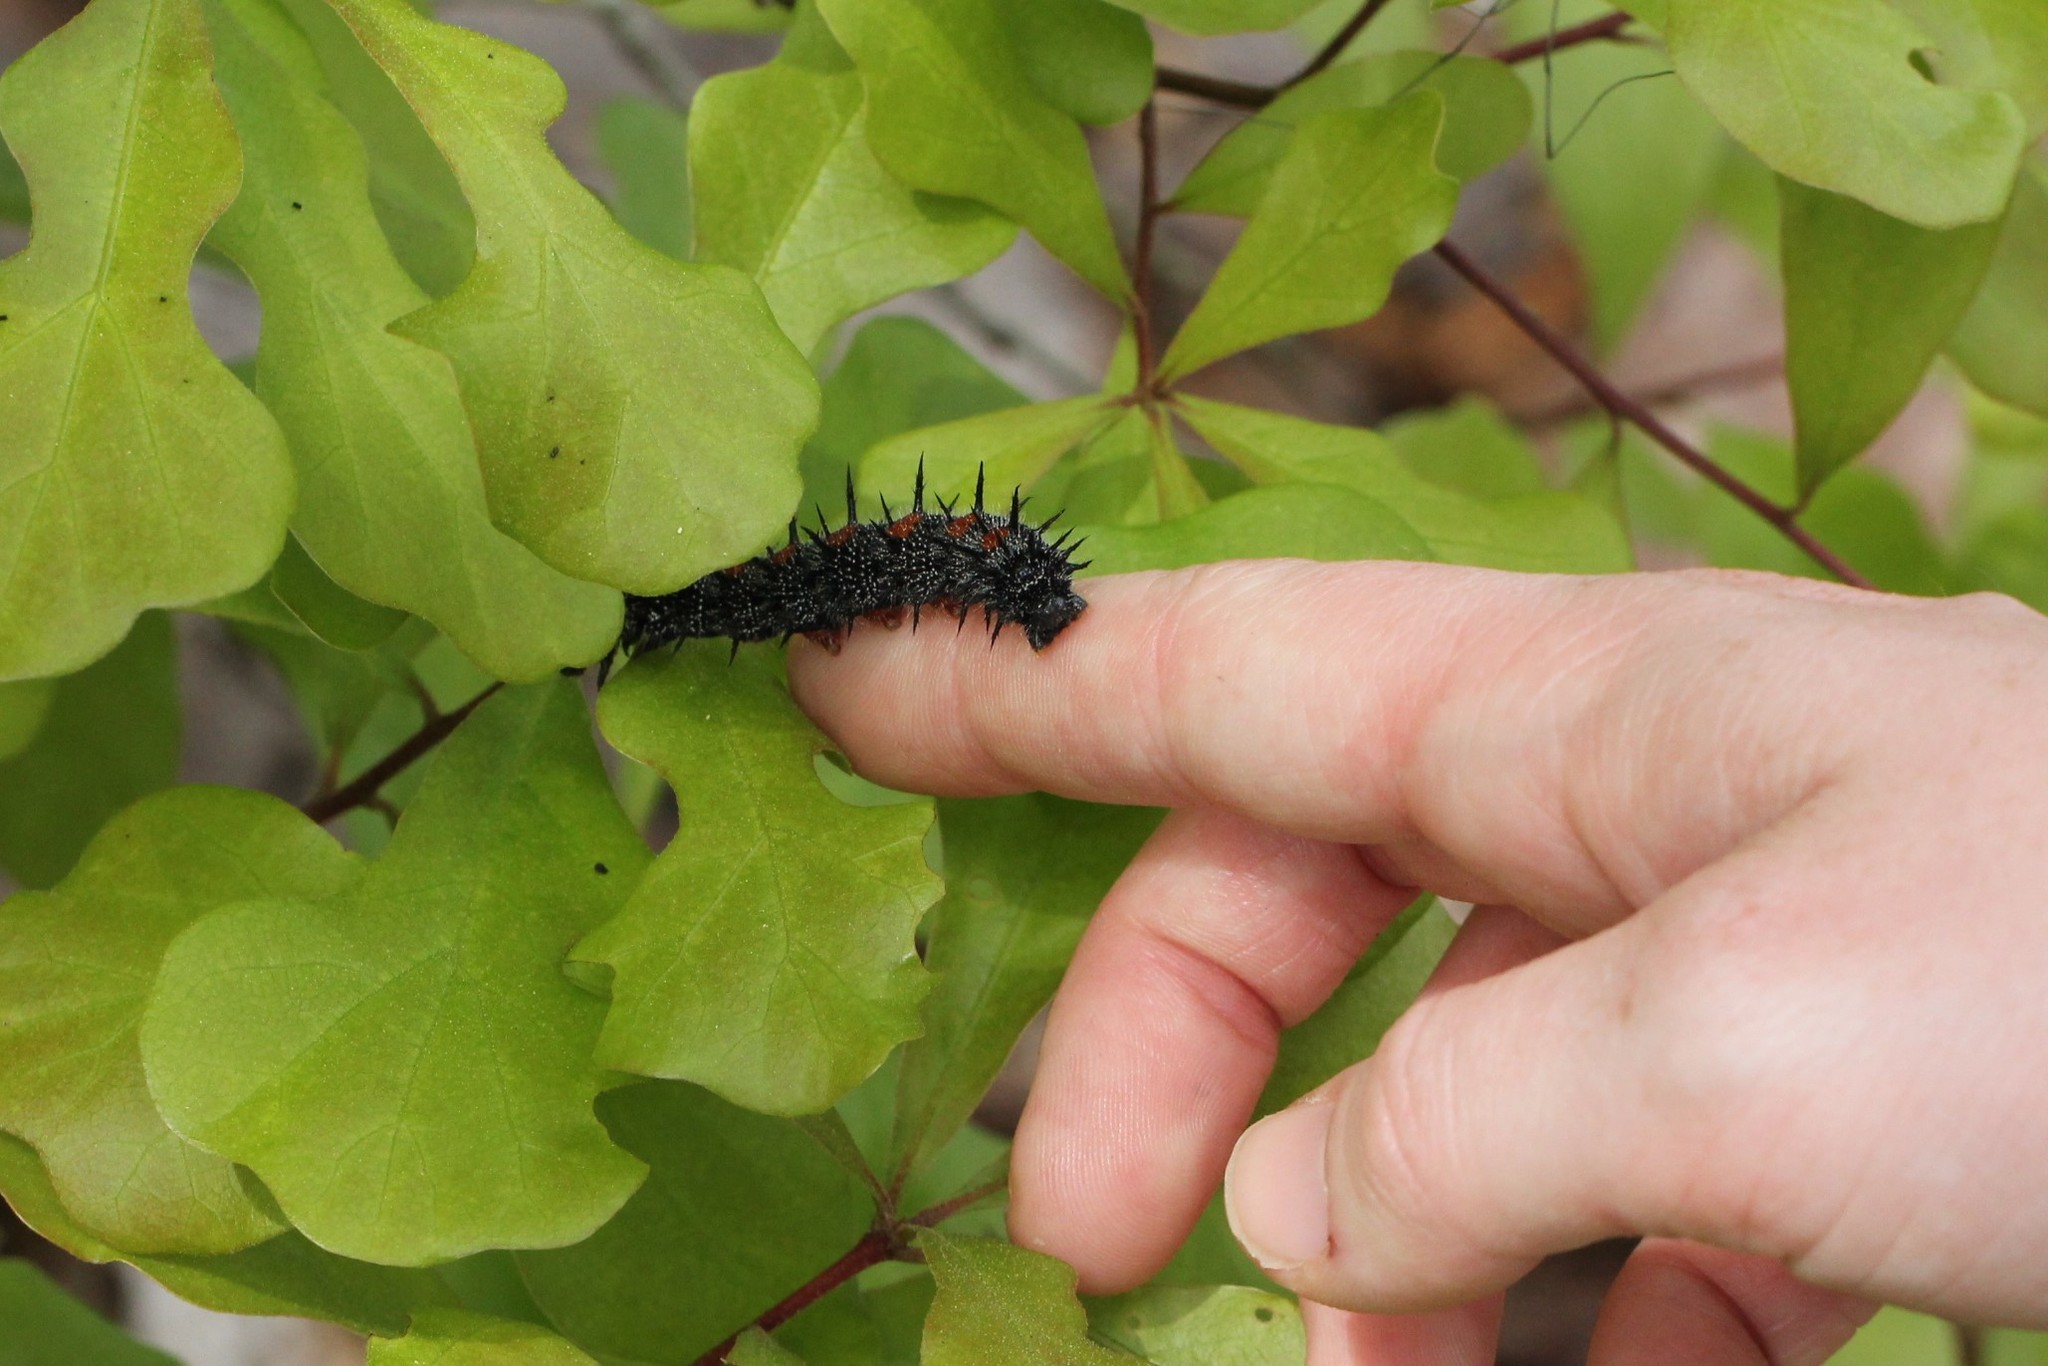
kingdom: Animalia
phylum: Arthropoda
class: Insecta
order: Lepidoptera
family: Nymphalidae
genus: Nymphalis
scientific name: Nymphalis antiopa
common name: Camberwell beauty
